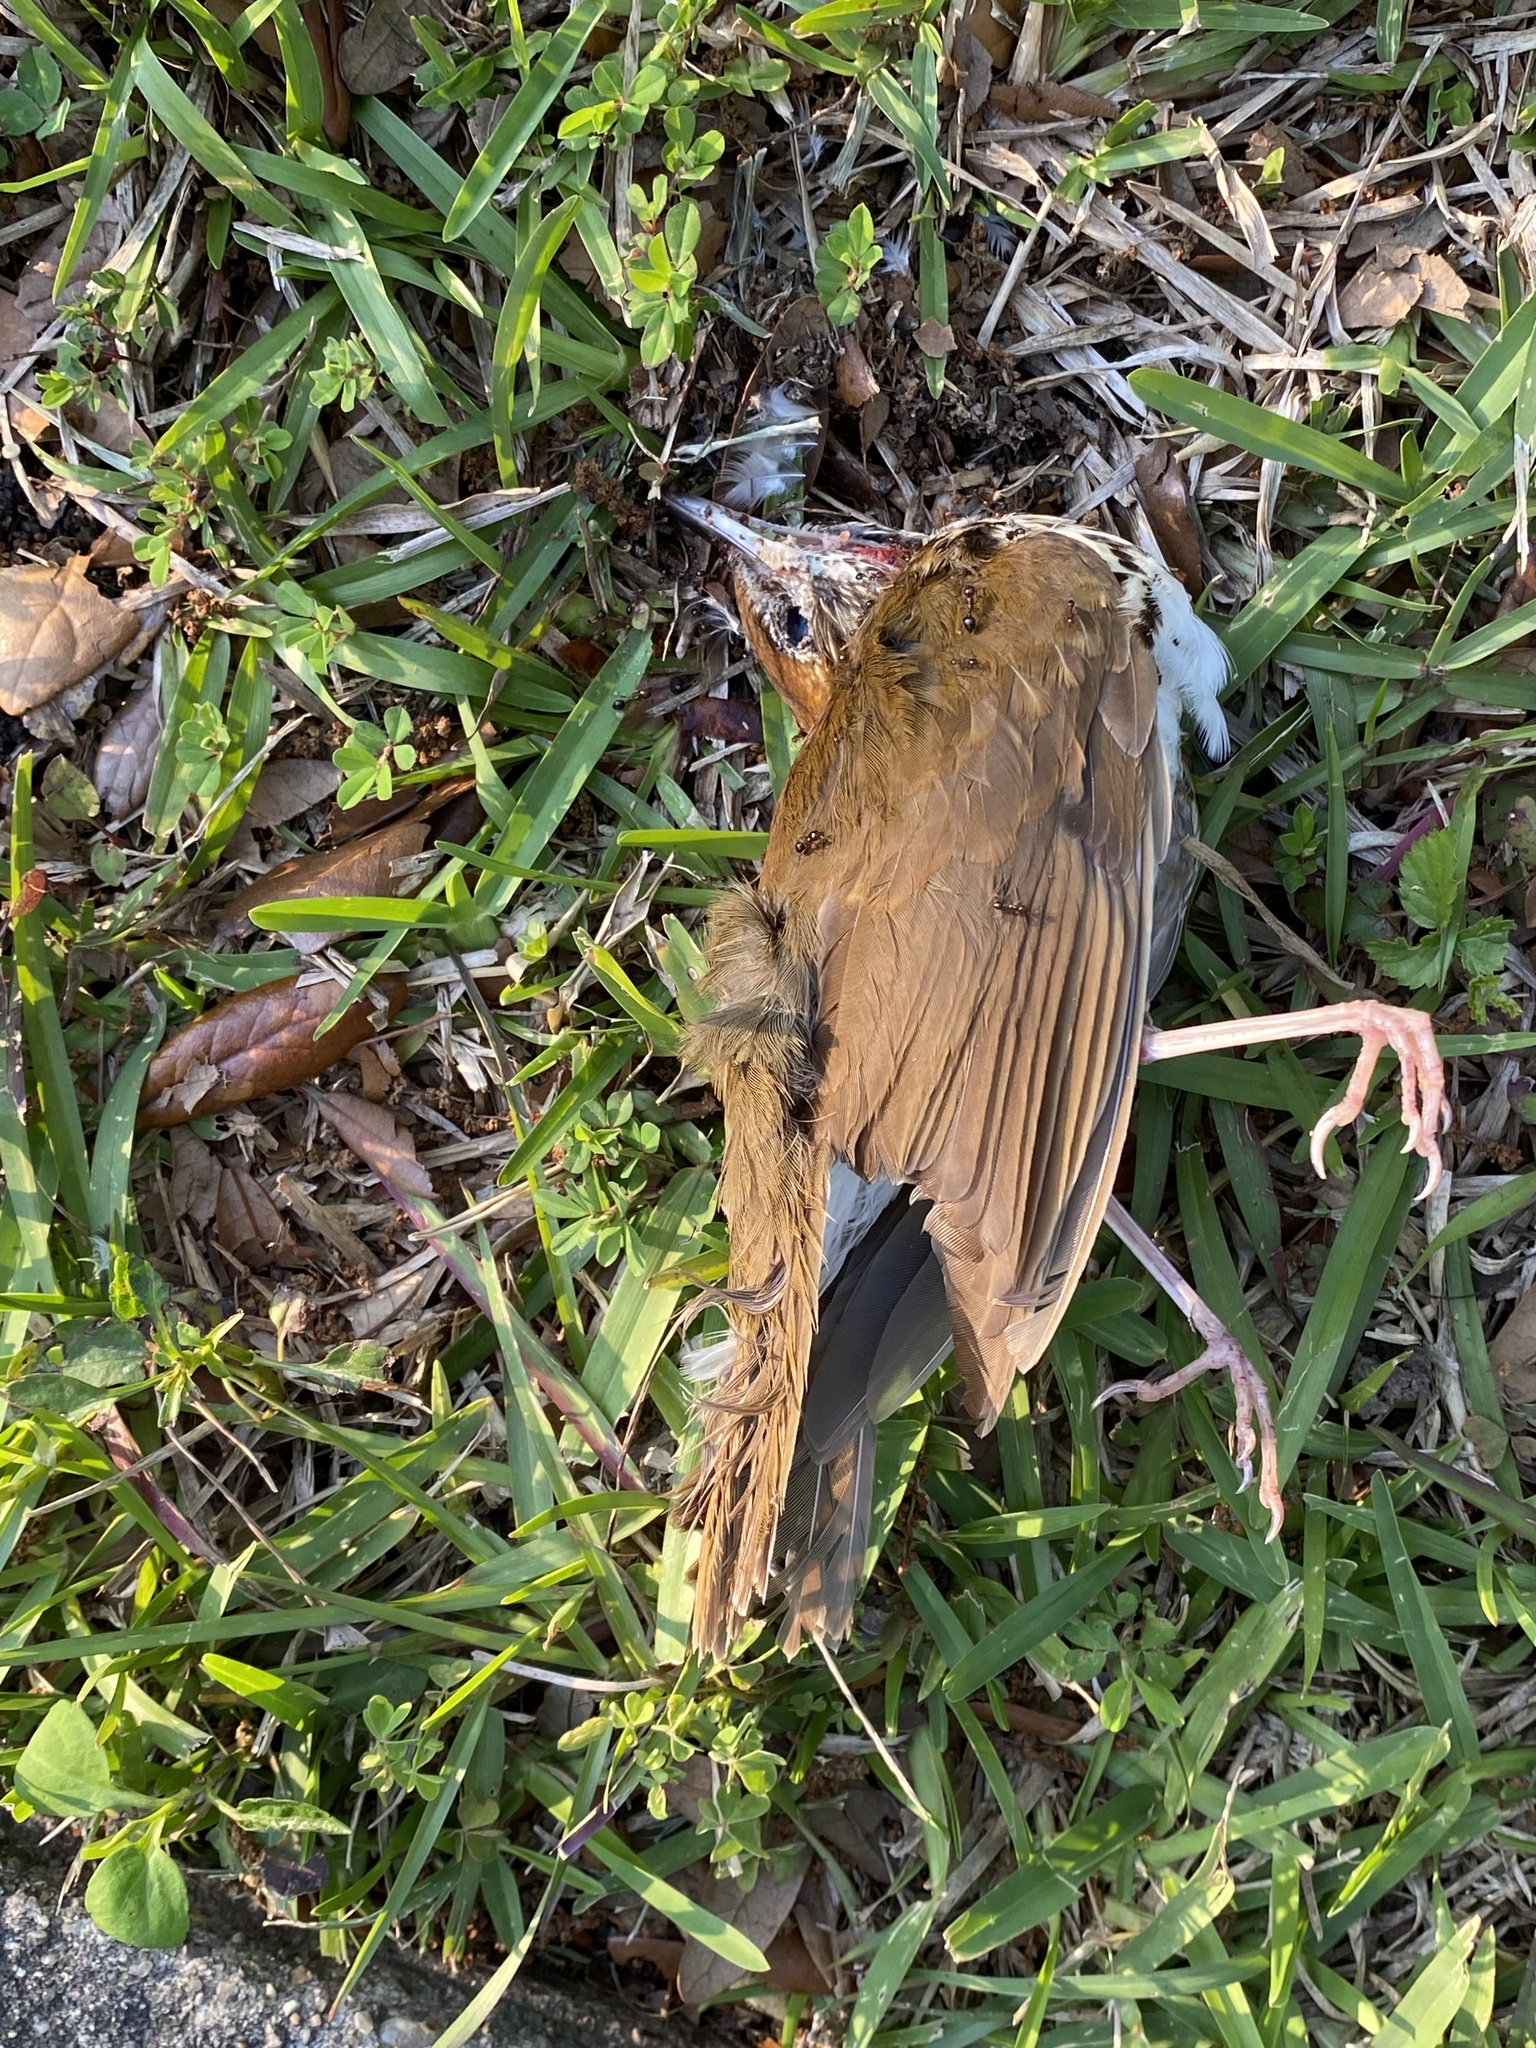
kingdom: Animalia
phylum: Chordata
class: Aves
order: Passeriformes
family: Turdidae
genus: Hylocichla
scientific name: Hylocichla mustelina
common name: Wood thrush
